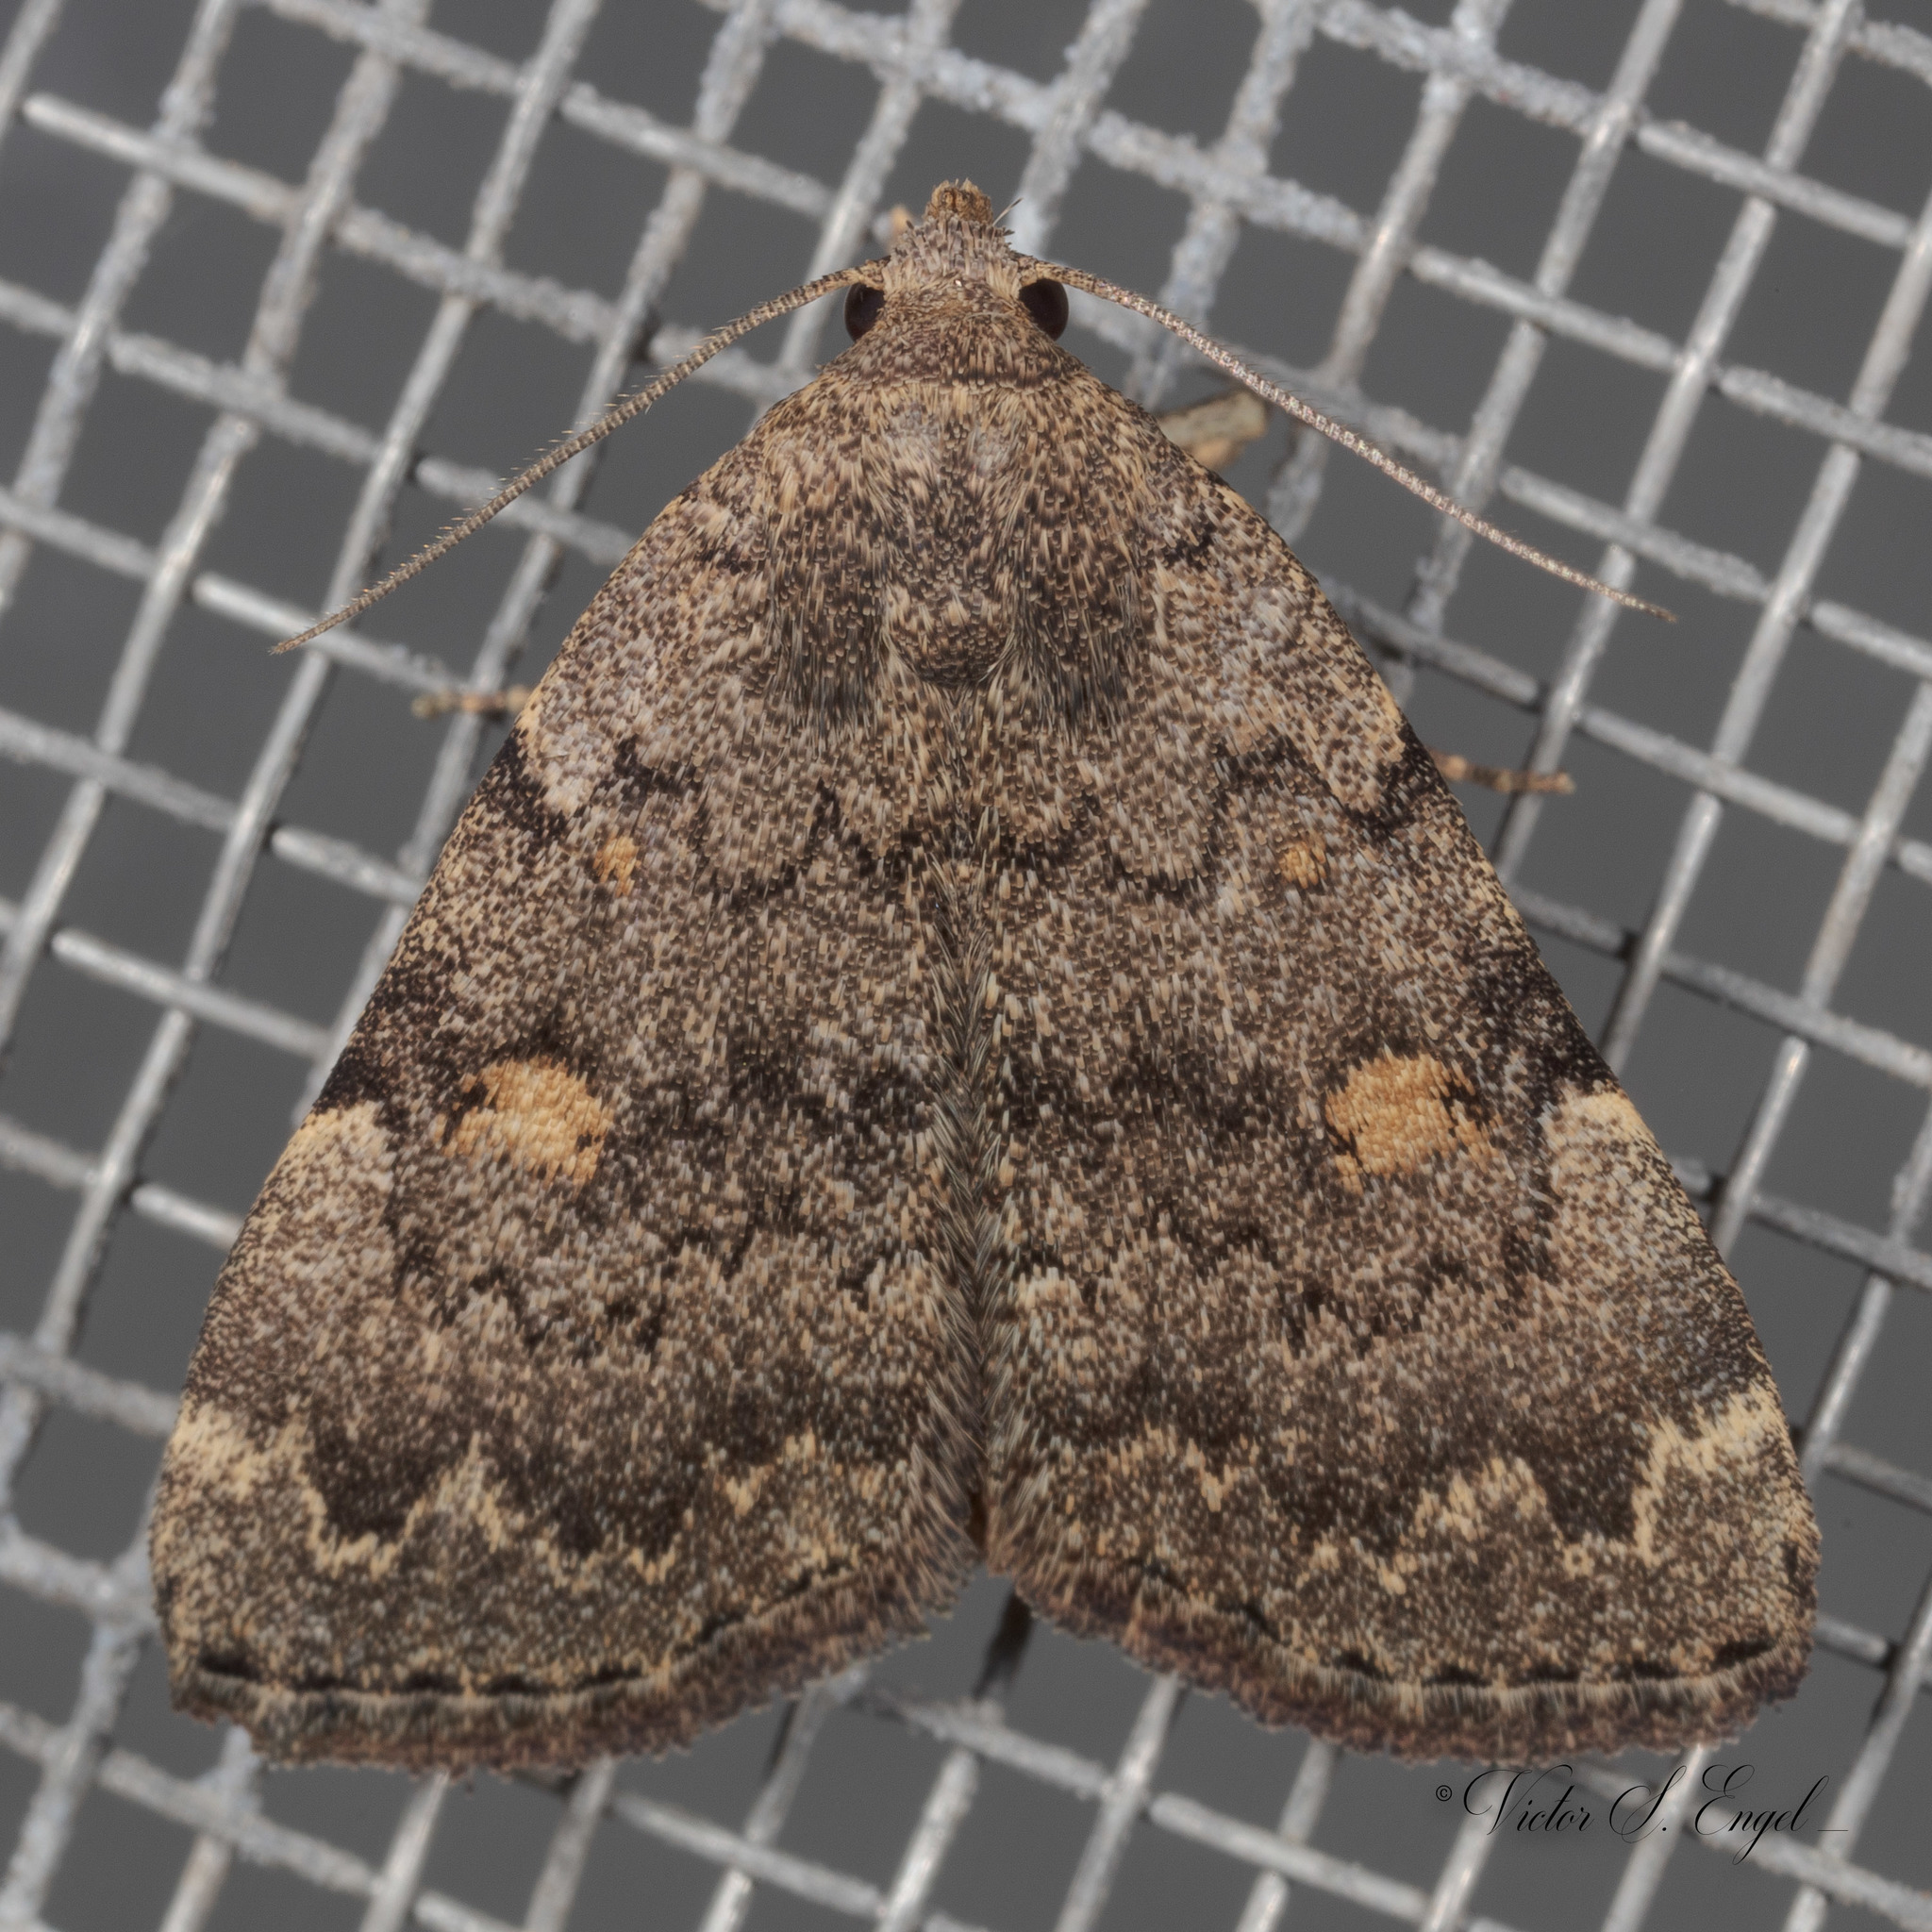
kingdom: Animalia
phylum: Arthropoda
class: Insecta
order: Lepidoptera
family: Erebidae
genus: Idia
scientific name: Idia aemula
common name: Common idia moth
